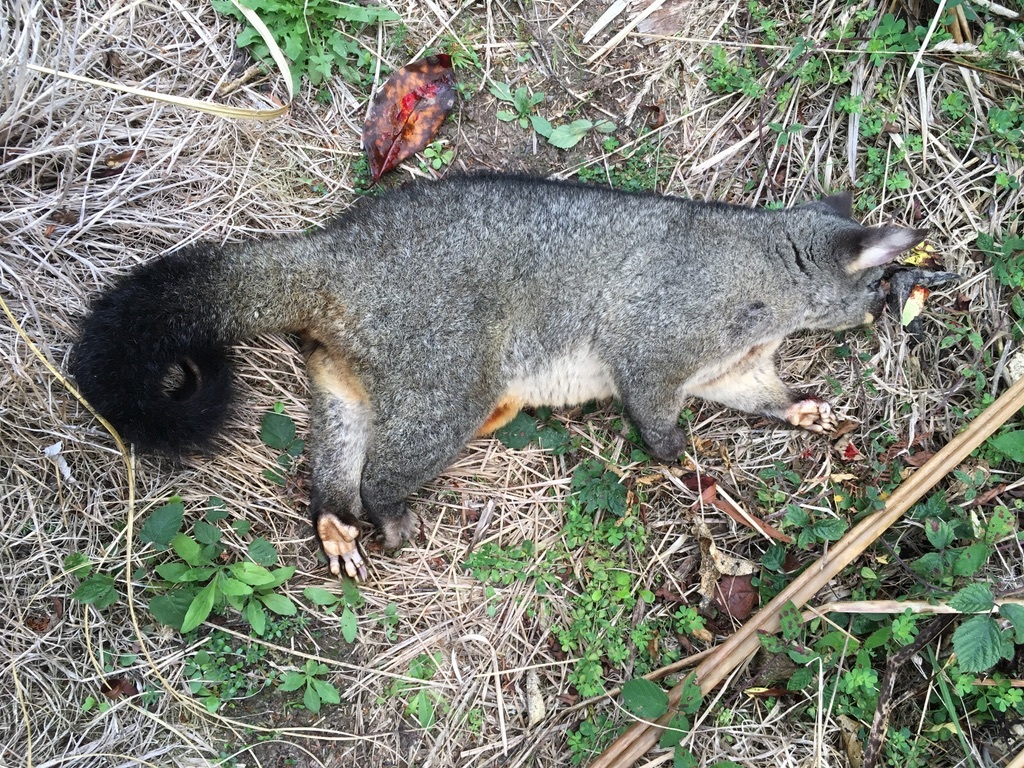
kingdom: Animalia
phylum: Chordata
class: Mammalia
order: Diprotodontia
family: Phalangeridae
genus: Trichosurus
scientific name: Trichosurus vulpecula
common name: Common brushtail
